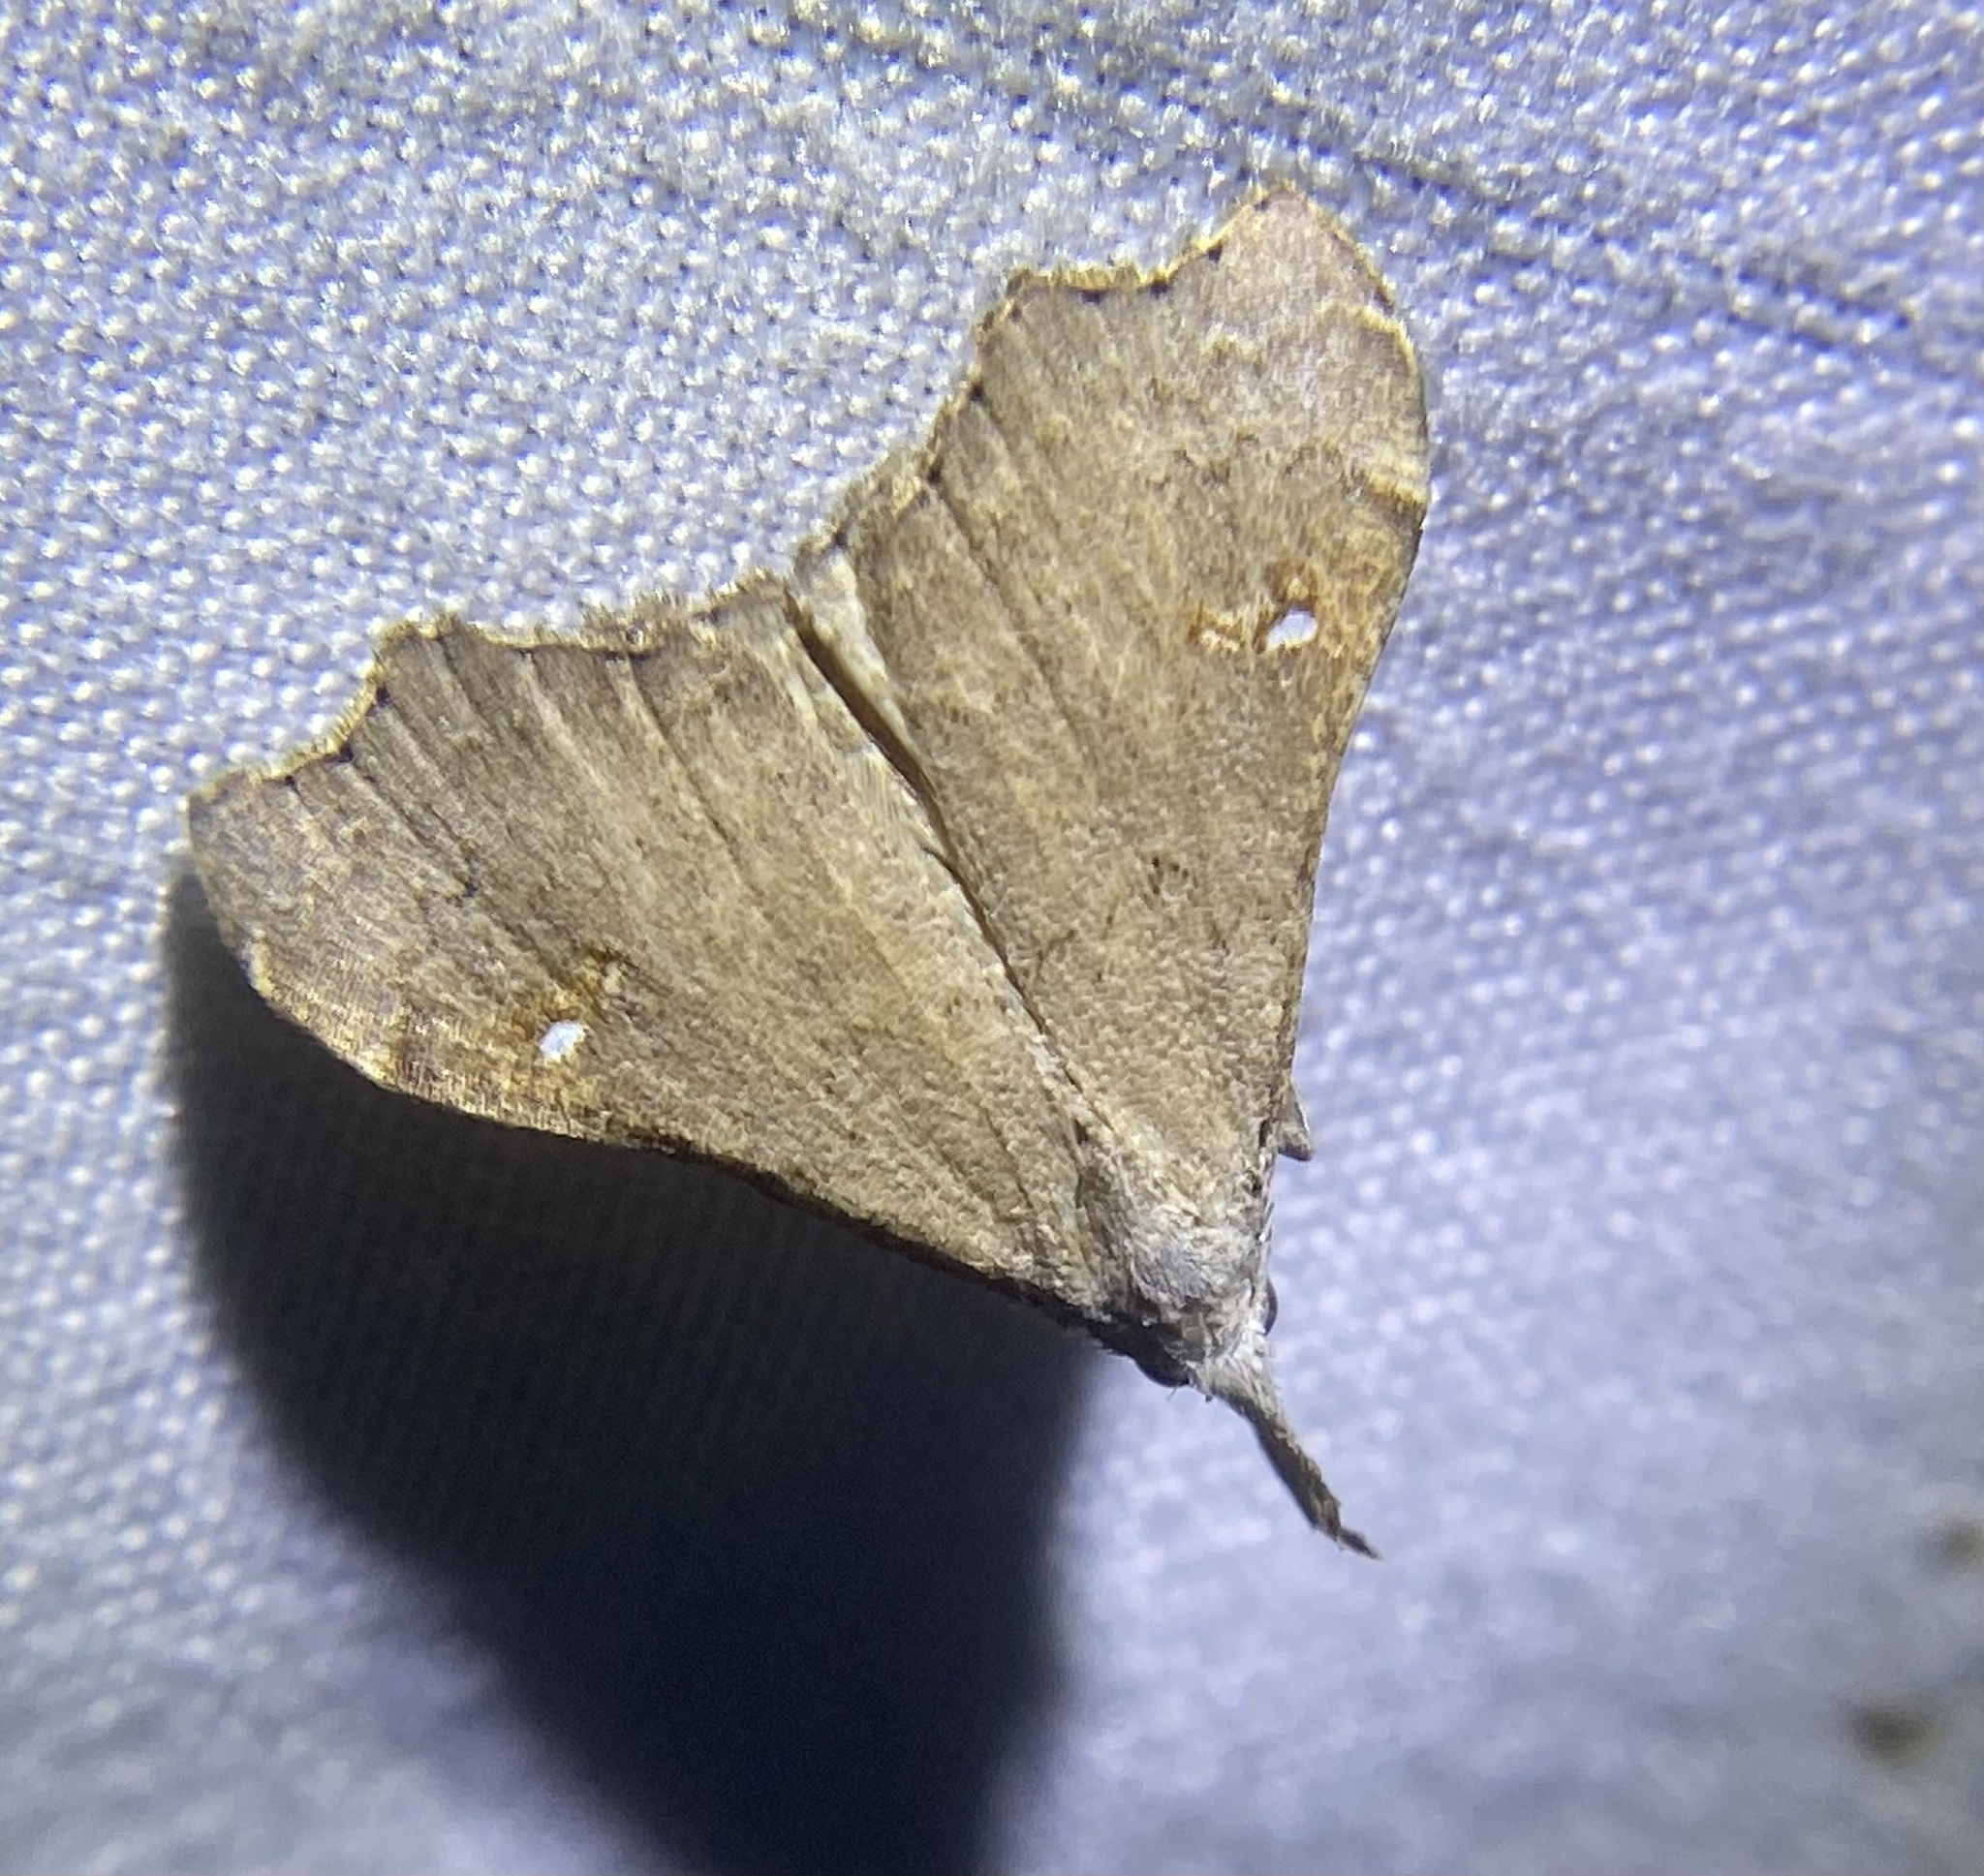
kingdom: Animalia
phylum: Arthropoda
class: Insecta
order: Lepidoptera
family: Erebidae
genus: Redectis
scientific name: Redectis vitrea
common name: White-spotted redectis
